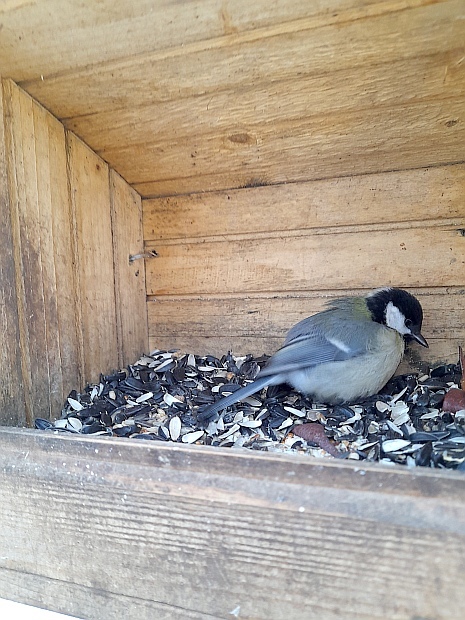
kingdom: Animalia
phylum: Chordata
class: Aves
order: Passeriformes
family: Paridae
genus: Parus
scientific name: Parus major
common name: Great tit
